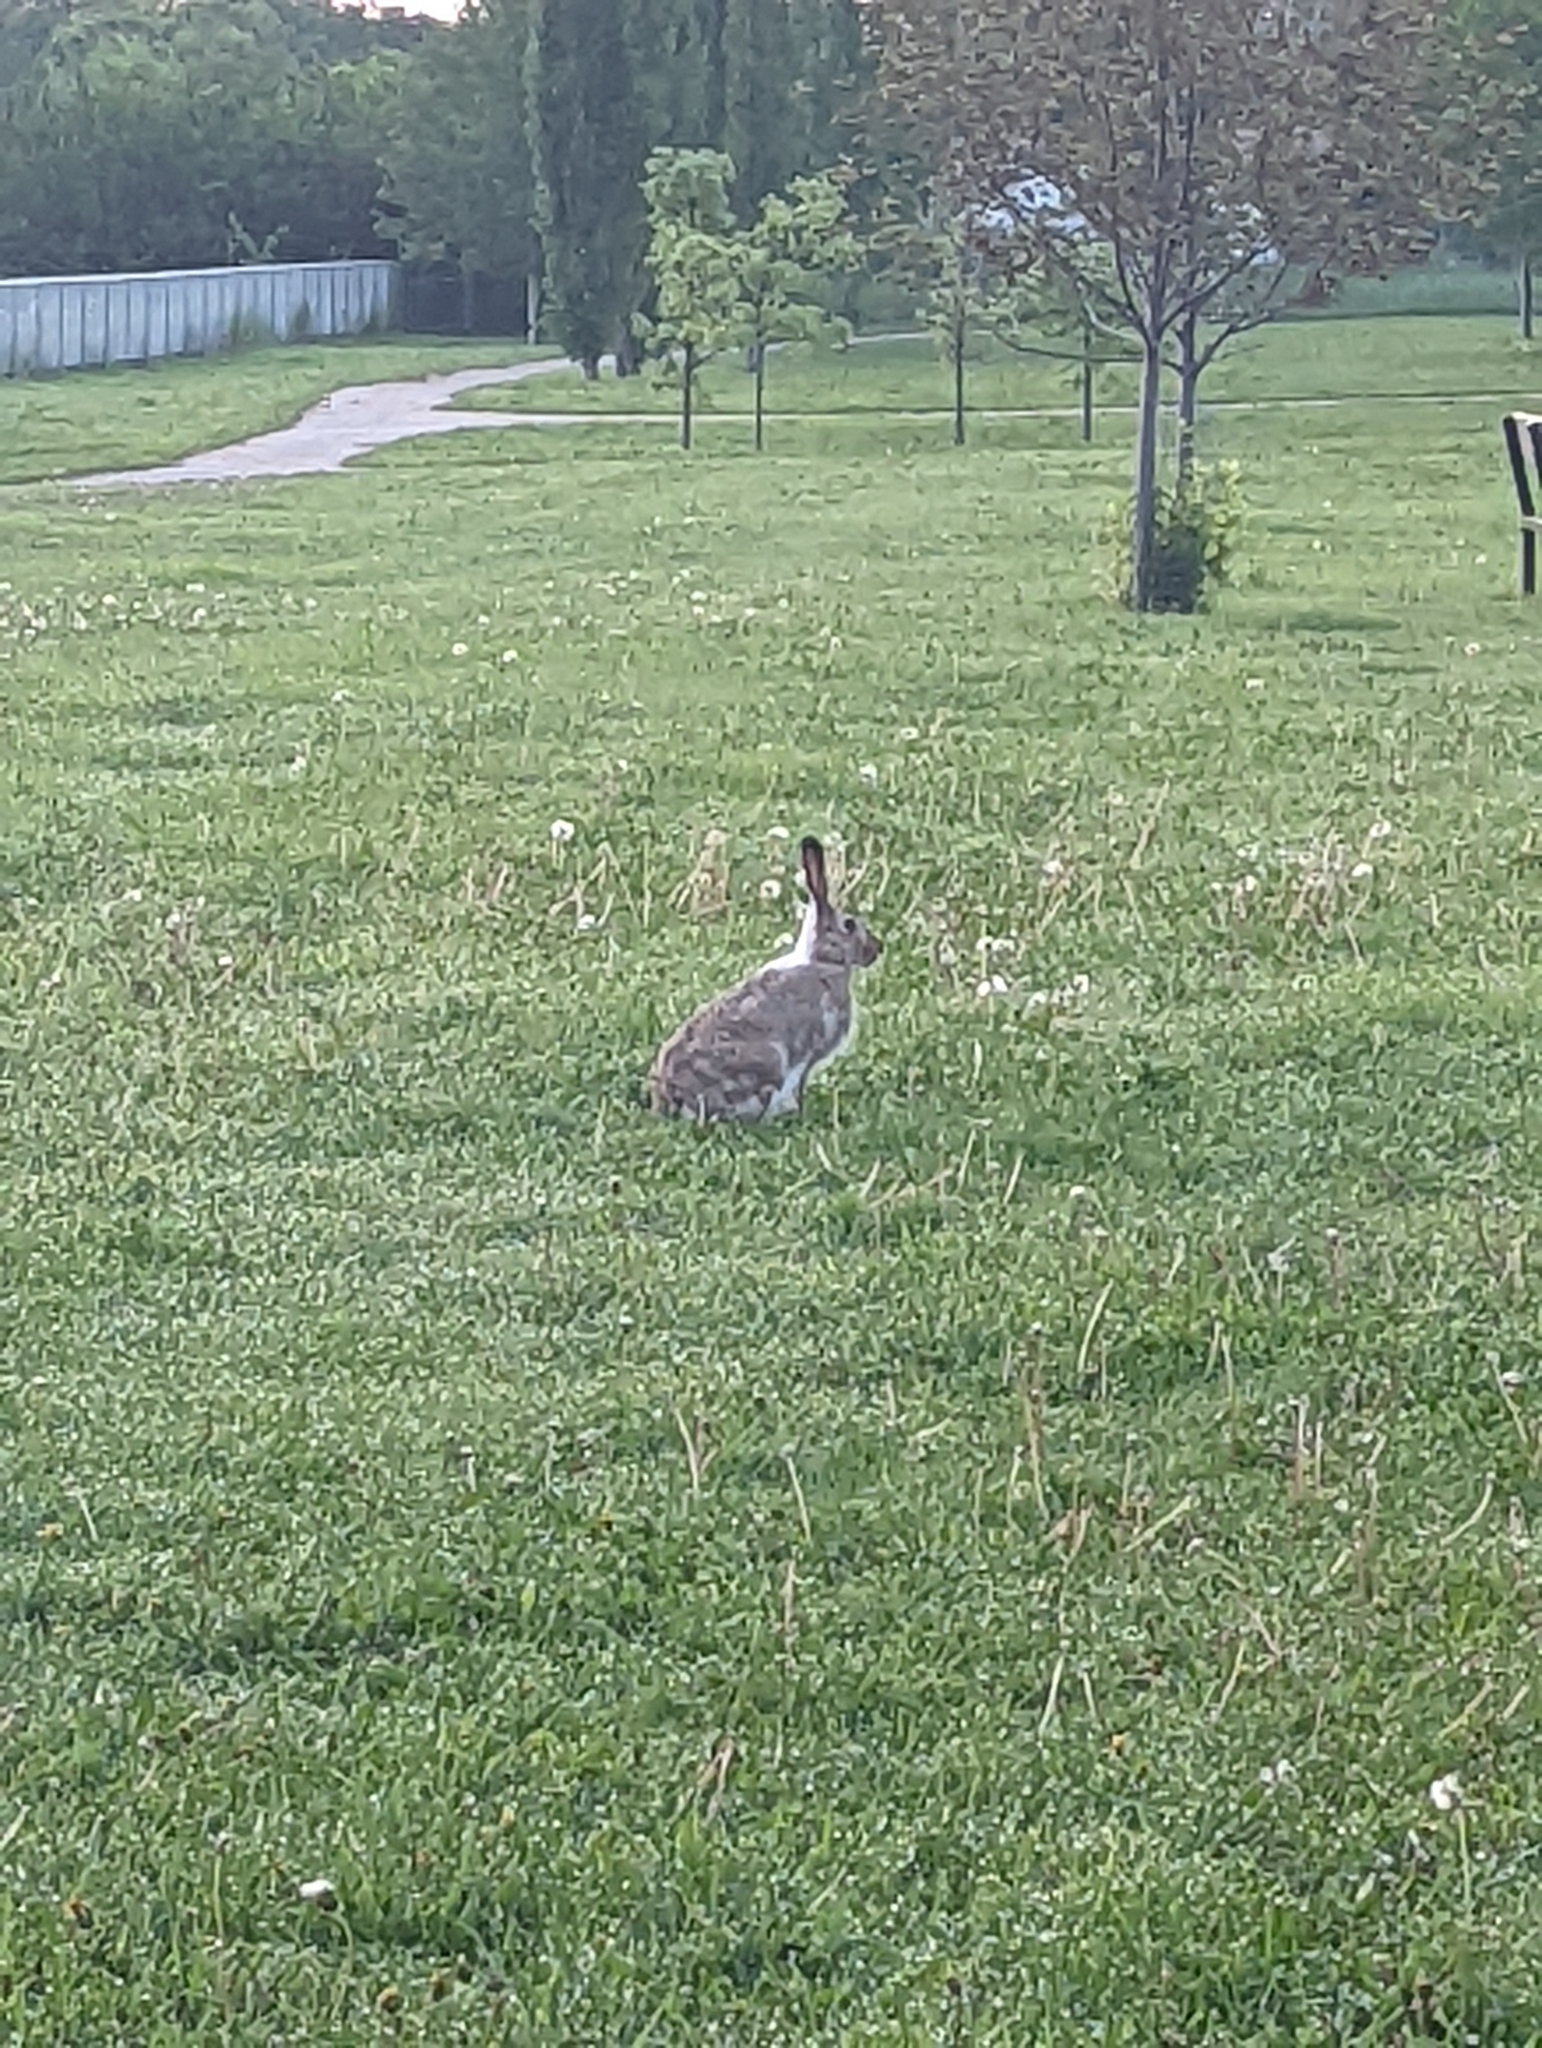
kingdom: Animalia
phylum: Chordata
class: Mammalia
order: Lagomorpha
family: Leporidae
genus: Lepus
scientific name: Lepus townsendii
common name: White-tailed jackrabbit
